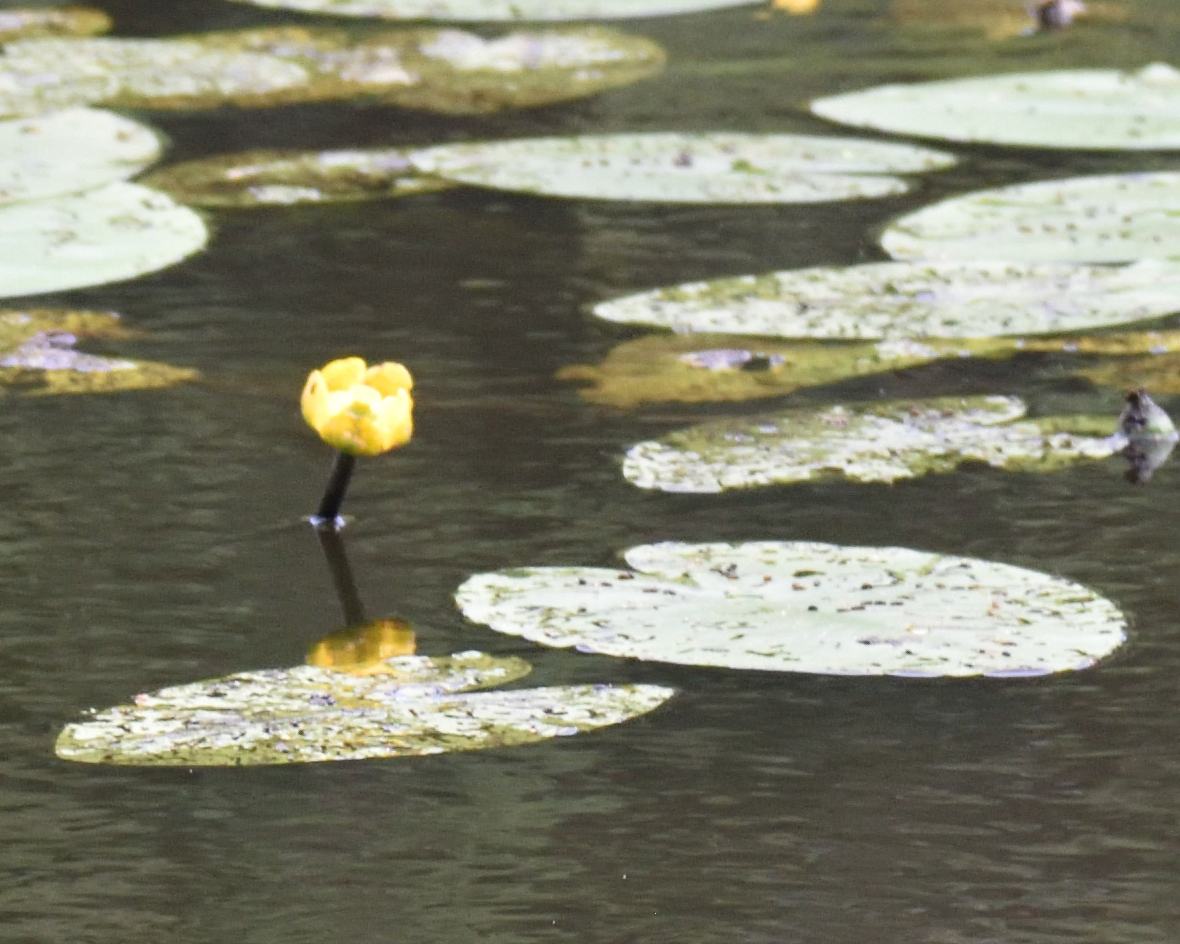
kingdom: Plantae
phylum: Tracheophyta
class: Magnoliopsida
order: Nymphaeales
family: Nymphaeaceae
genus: Nuphar
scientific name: Nuphar lutea
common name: Yellow water-lily
